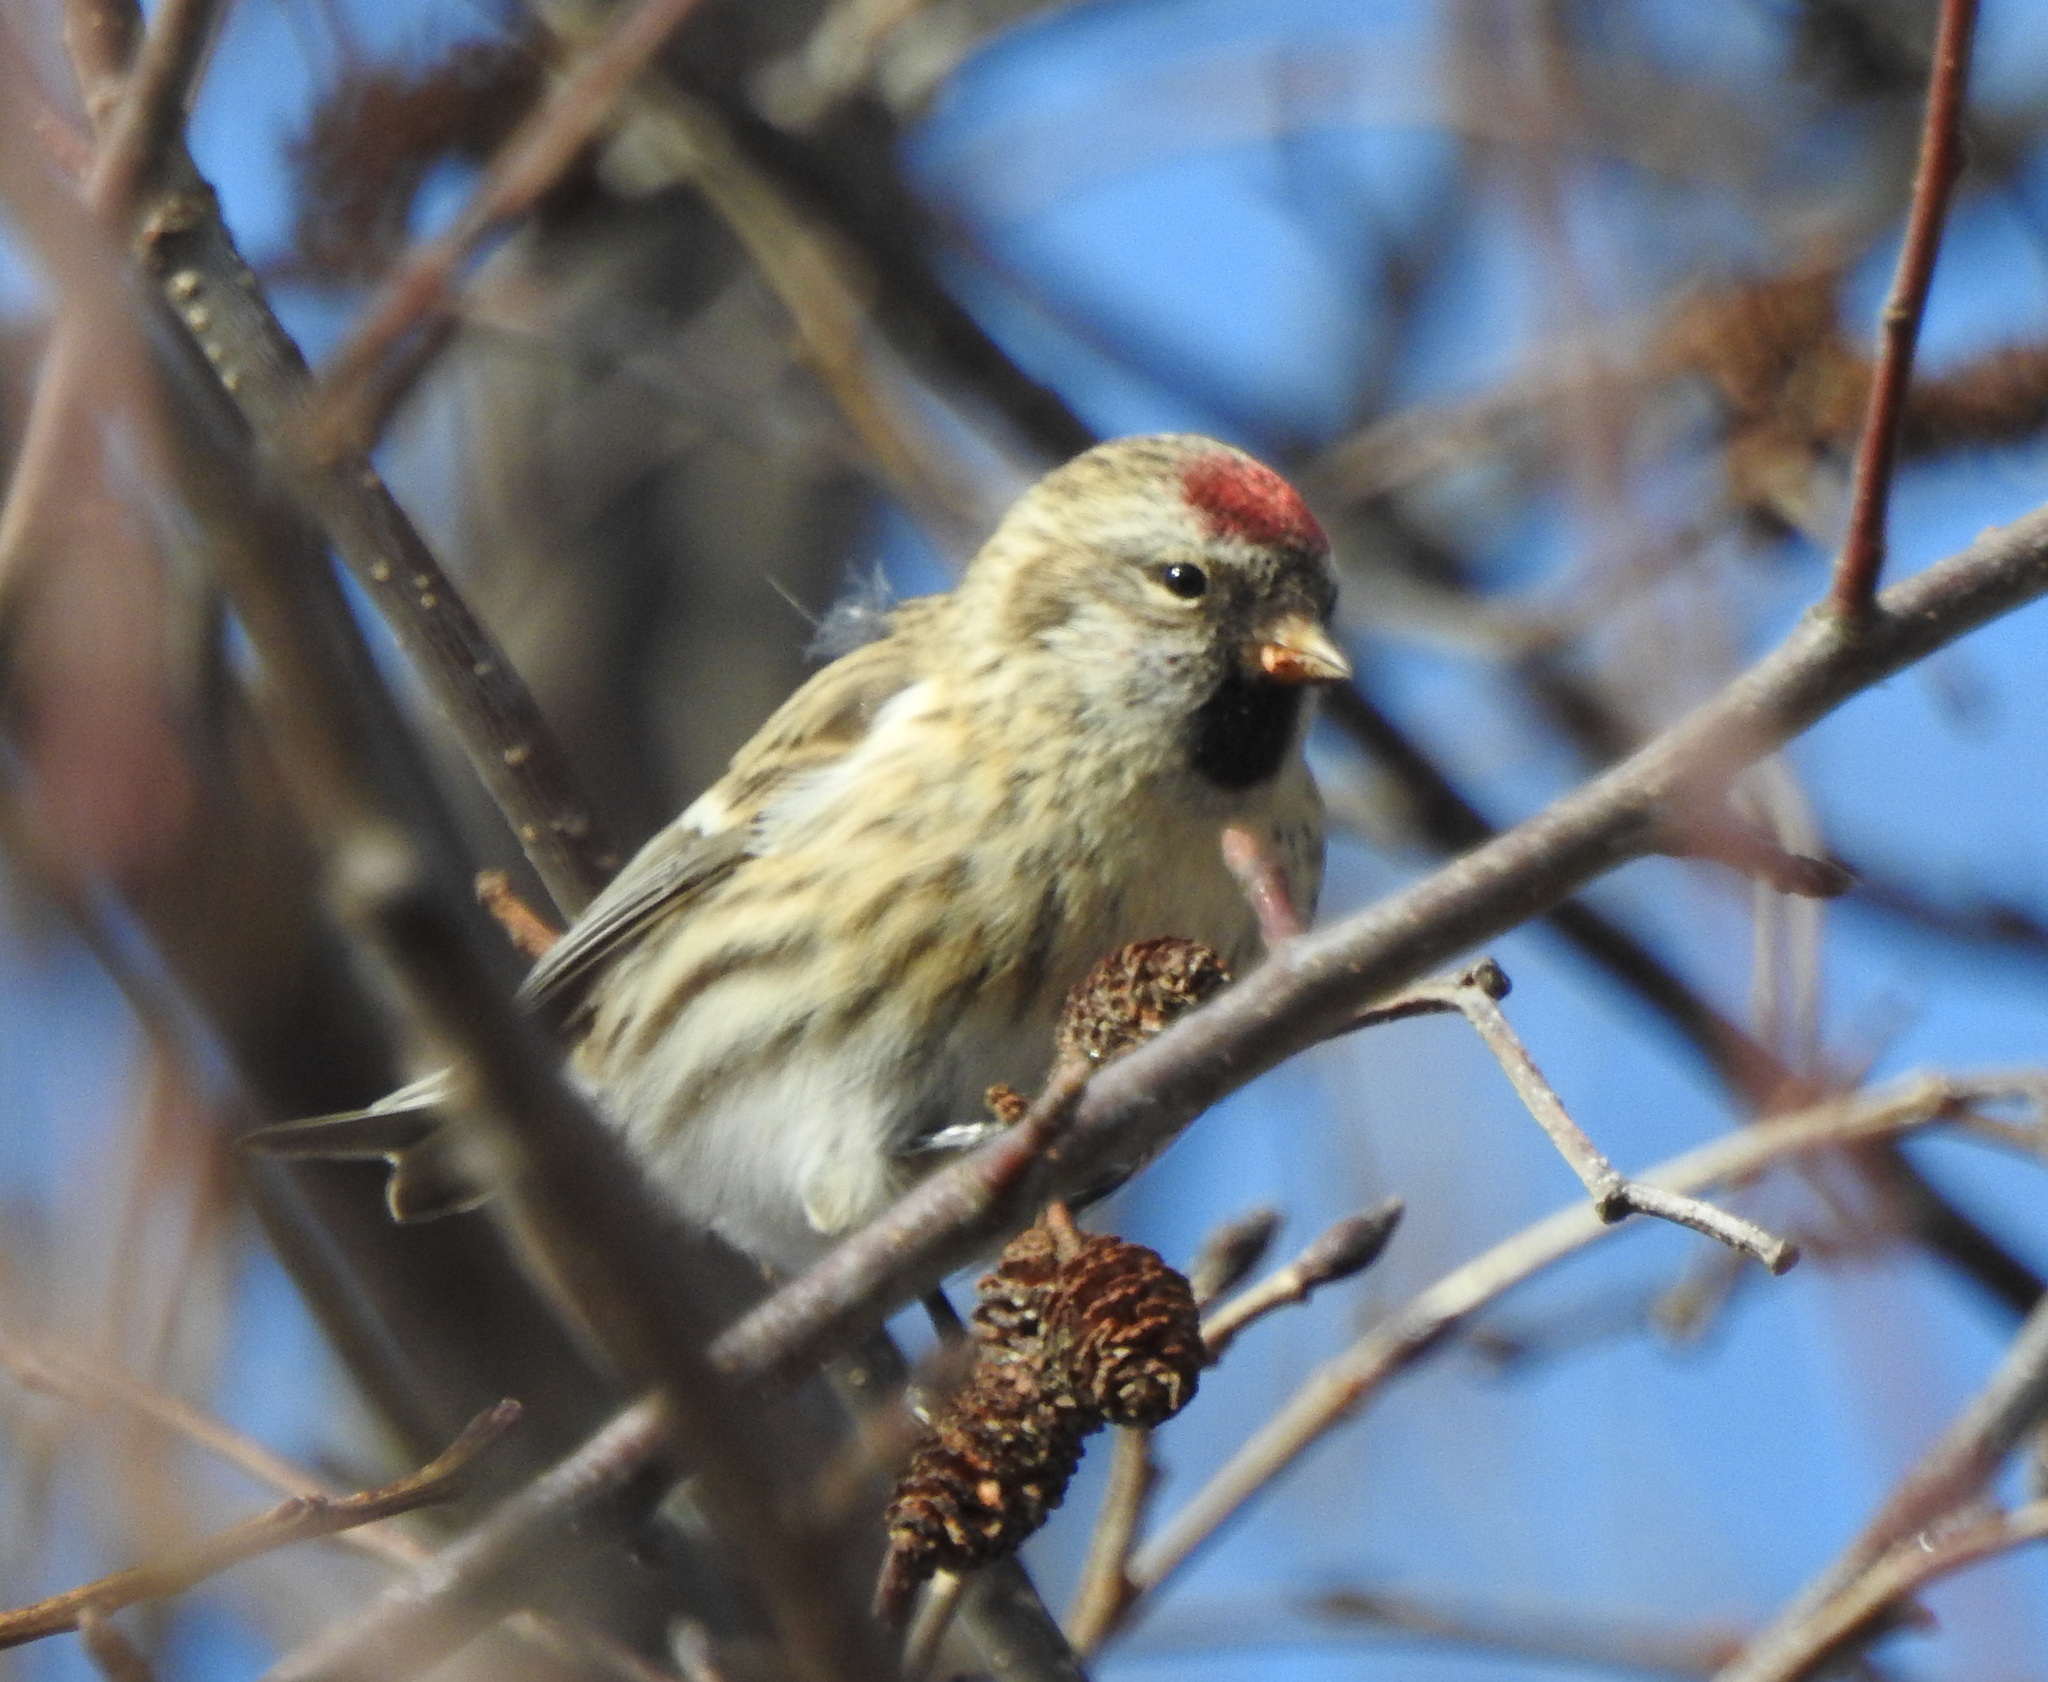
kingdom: Animalia
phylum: Chordata
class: Aves
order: Passeriformes
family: Fringillidae
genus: Acanthis
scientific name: Acanthis flammea
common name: Common redpoll
